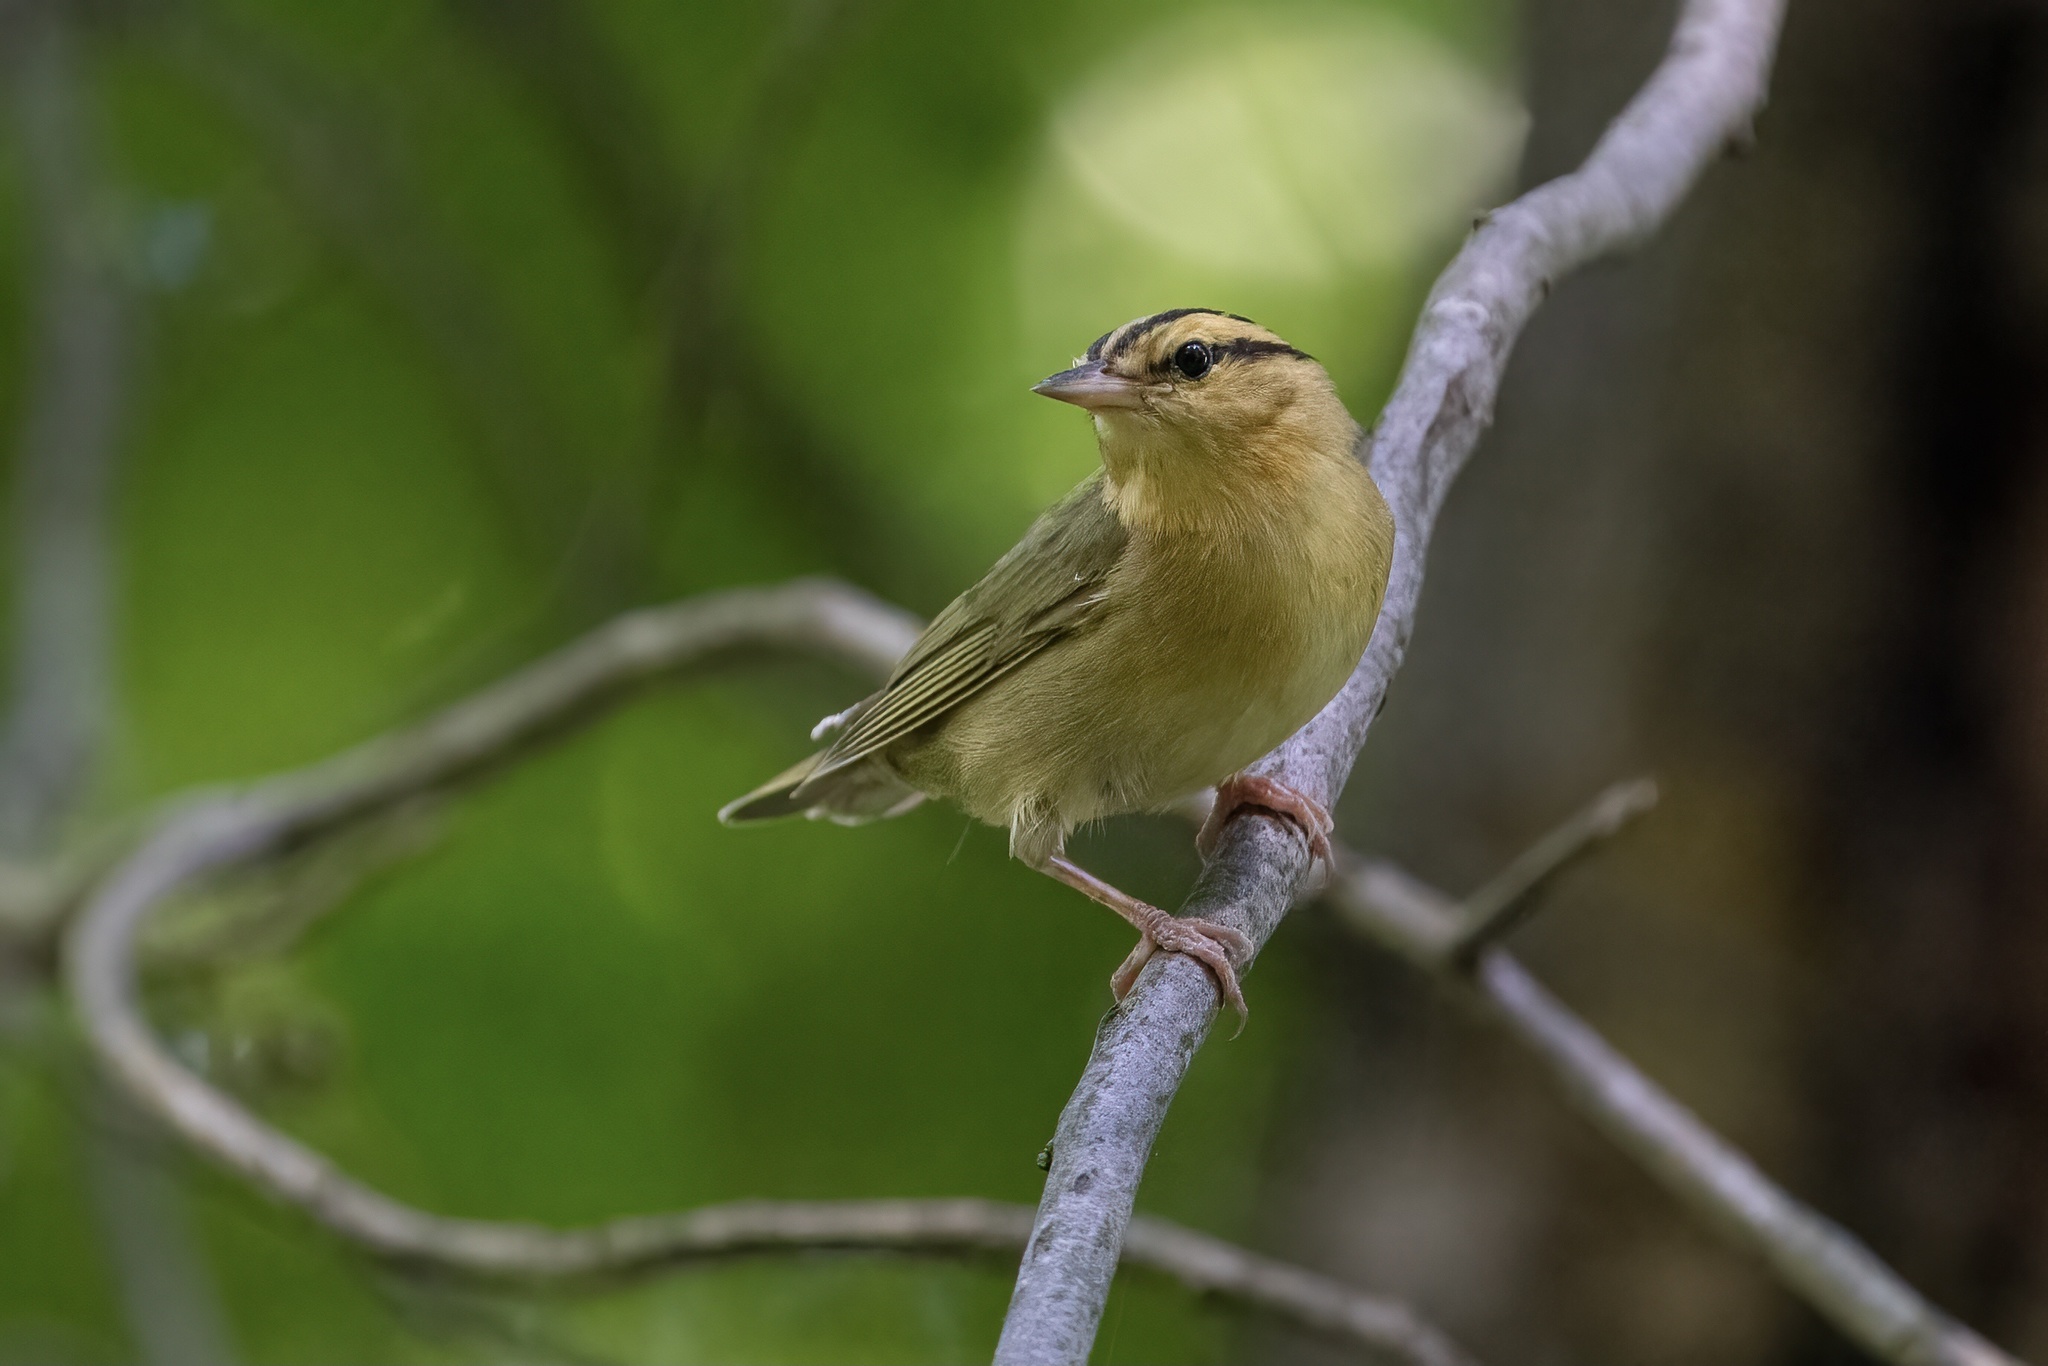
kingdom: Animalia
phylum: Chordata
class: Aves
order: Passeriformes
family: Parulidae
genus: Helmitheros
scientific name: Helmitheros vermivorum
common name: Worm-eating warbler
